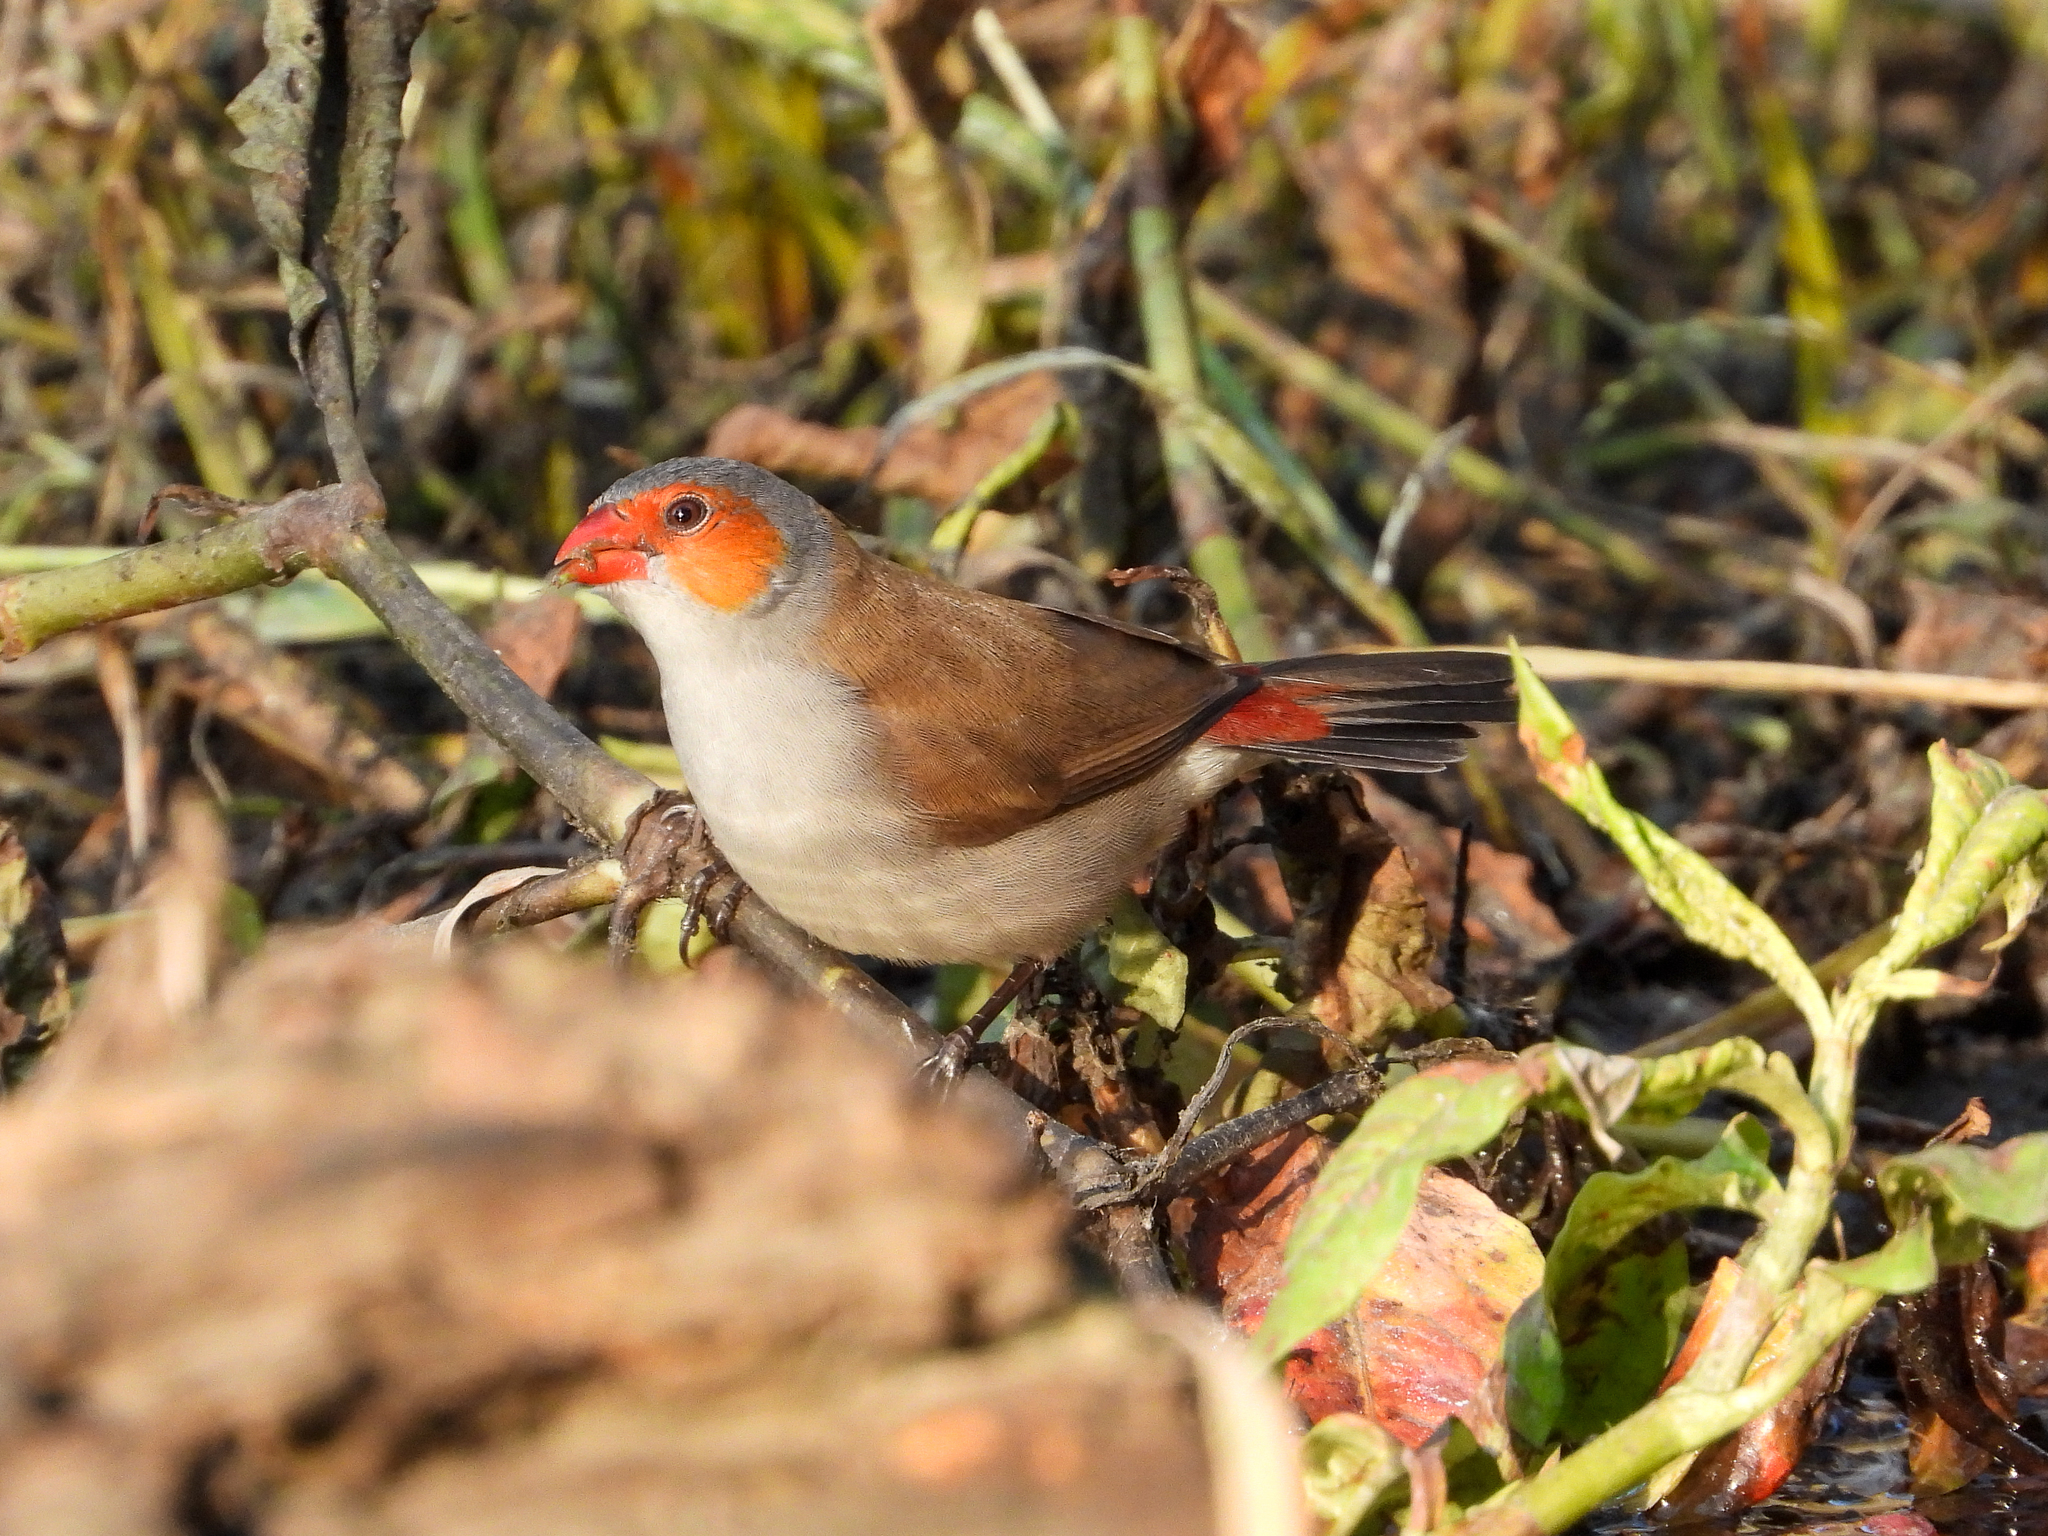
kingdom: Animalia
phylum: Chordata
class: Aves
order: Passeriformes
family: Estrildidae
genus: Estrilda
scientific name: Estrilda melpoda
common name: Orange-cheeked waxbill
